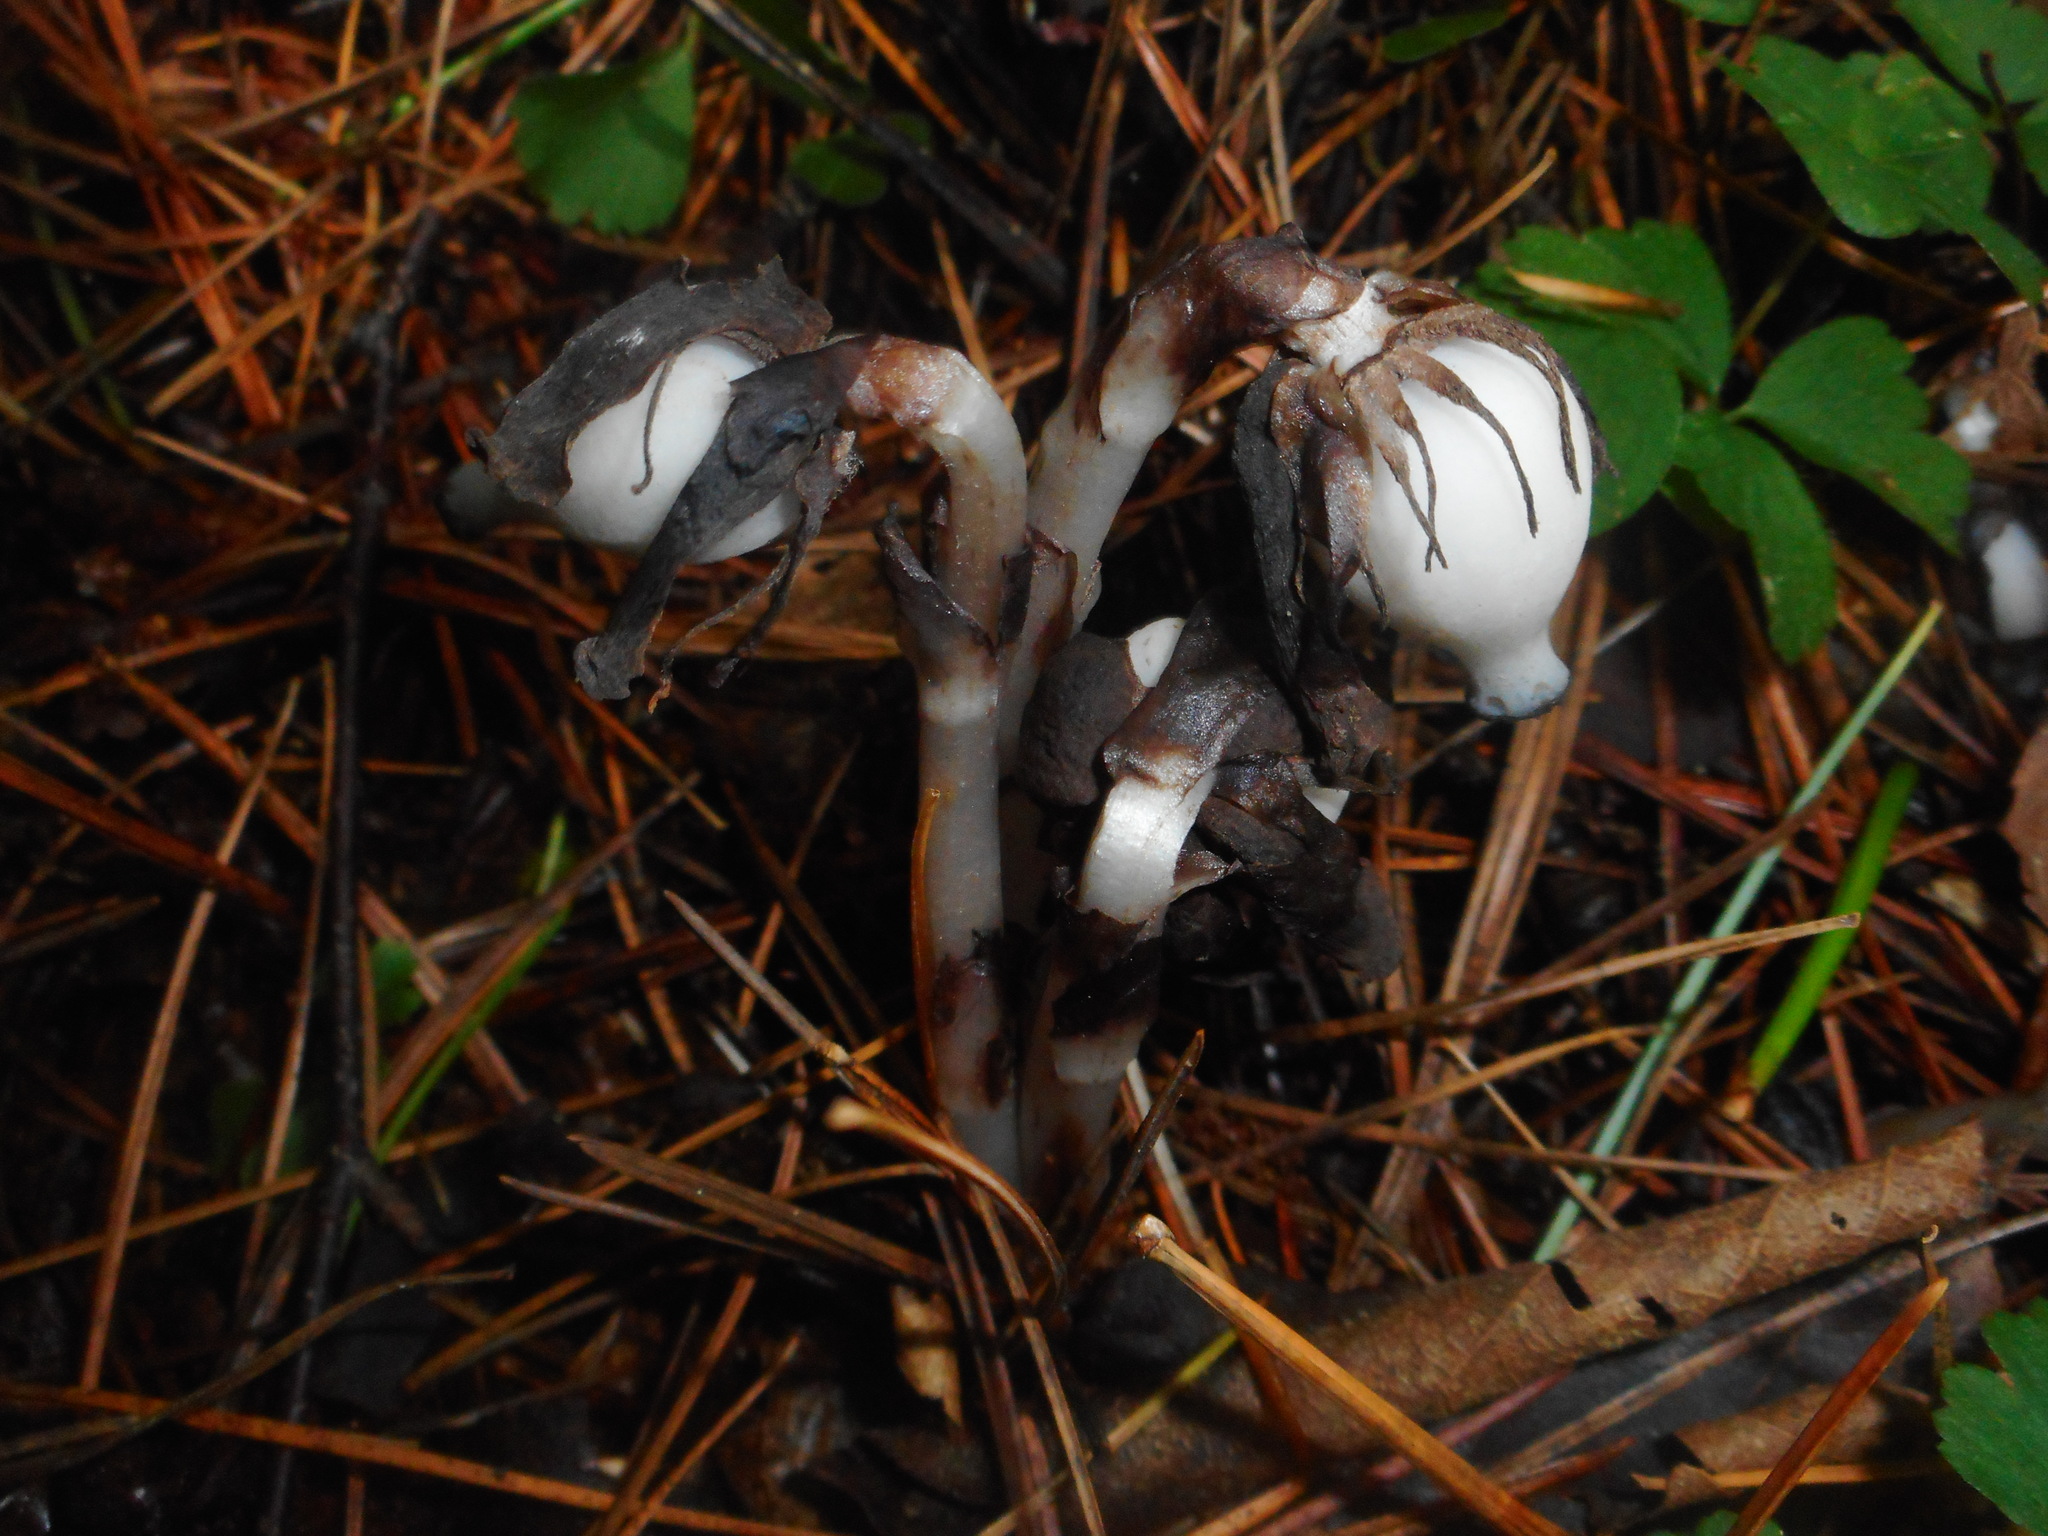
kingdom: Plantae
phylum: Tracheophyta
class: Magnoliopsida
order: Ericales
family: Ericaceae
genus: Monotropastrum
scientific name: Monotropastrum humile
